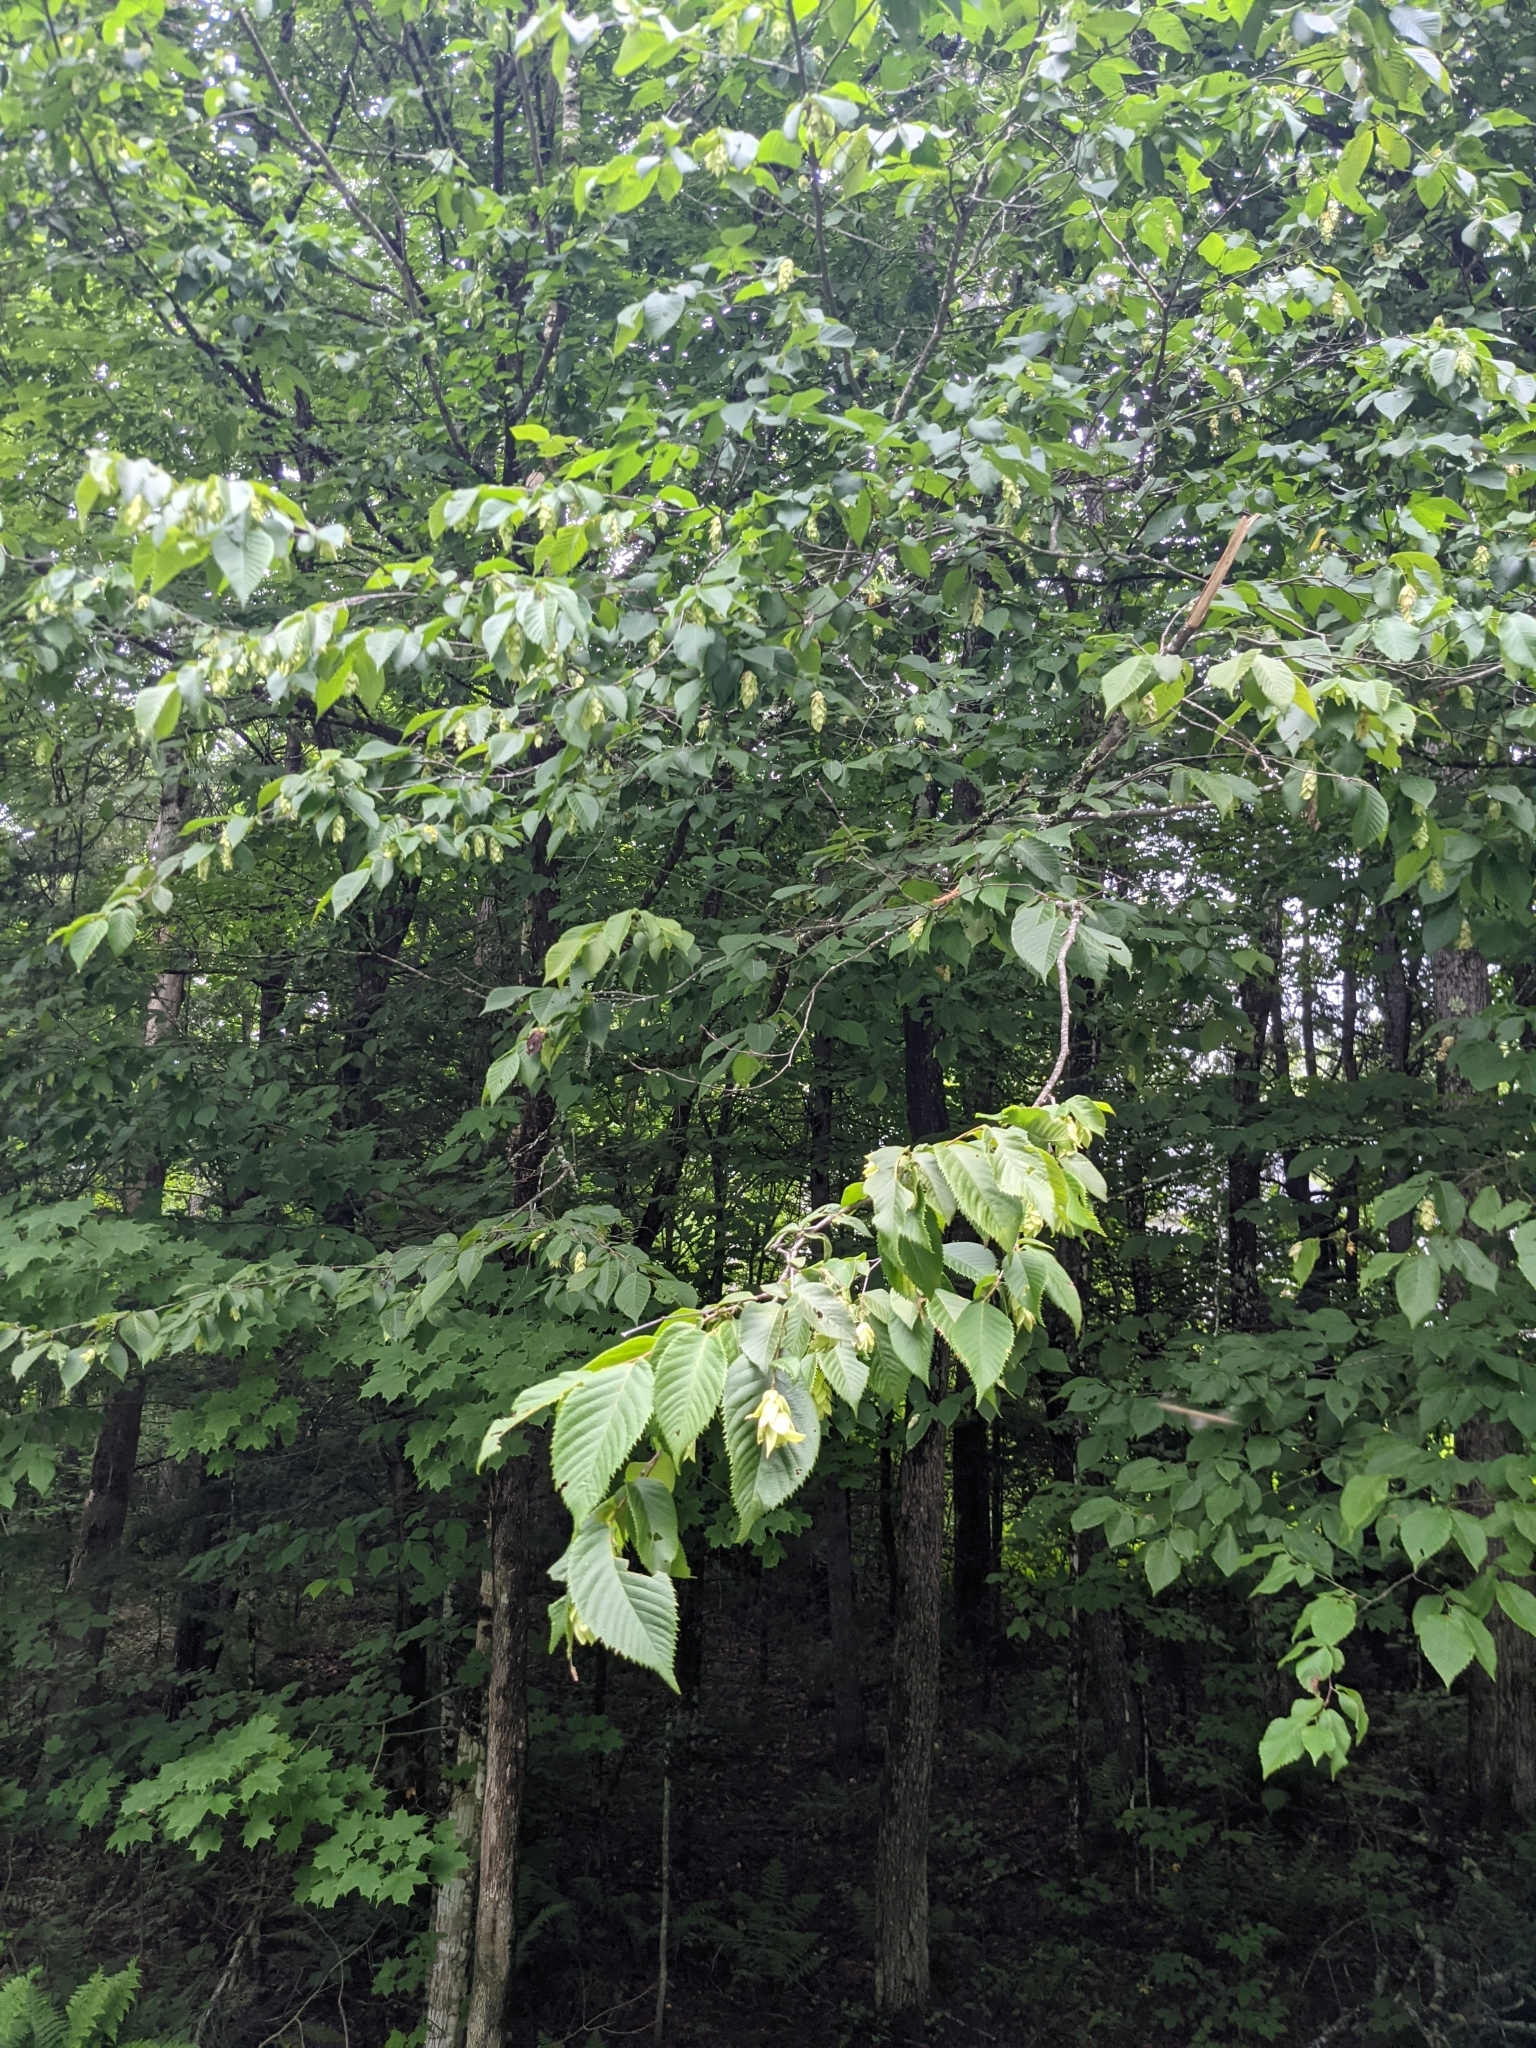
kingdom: Plantae
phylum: Tracheophyta
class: Magnoliopsida
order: Fagales
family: Betulaceae
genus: Ostrya
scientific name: Ostrya virginiana
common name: Ironwood
